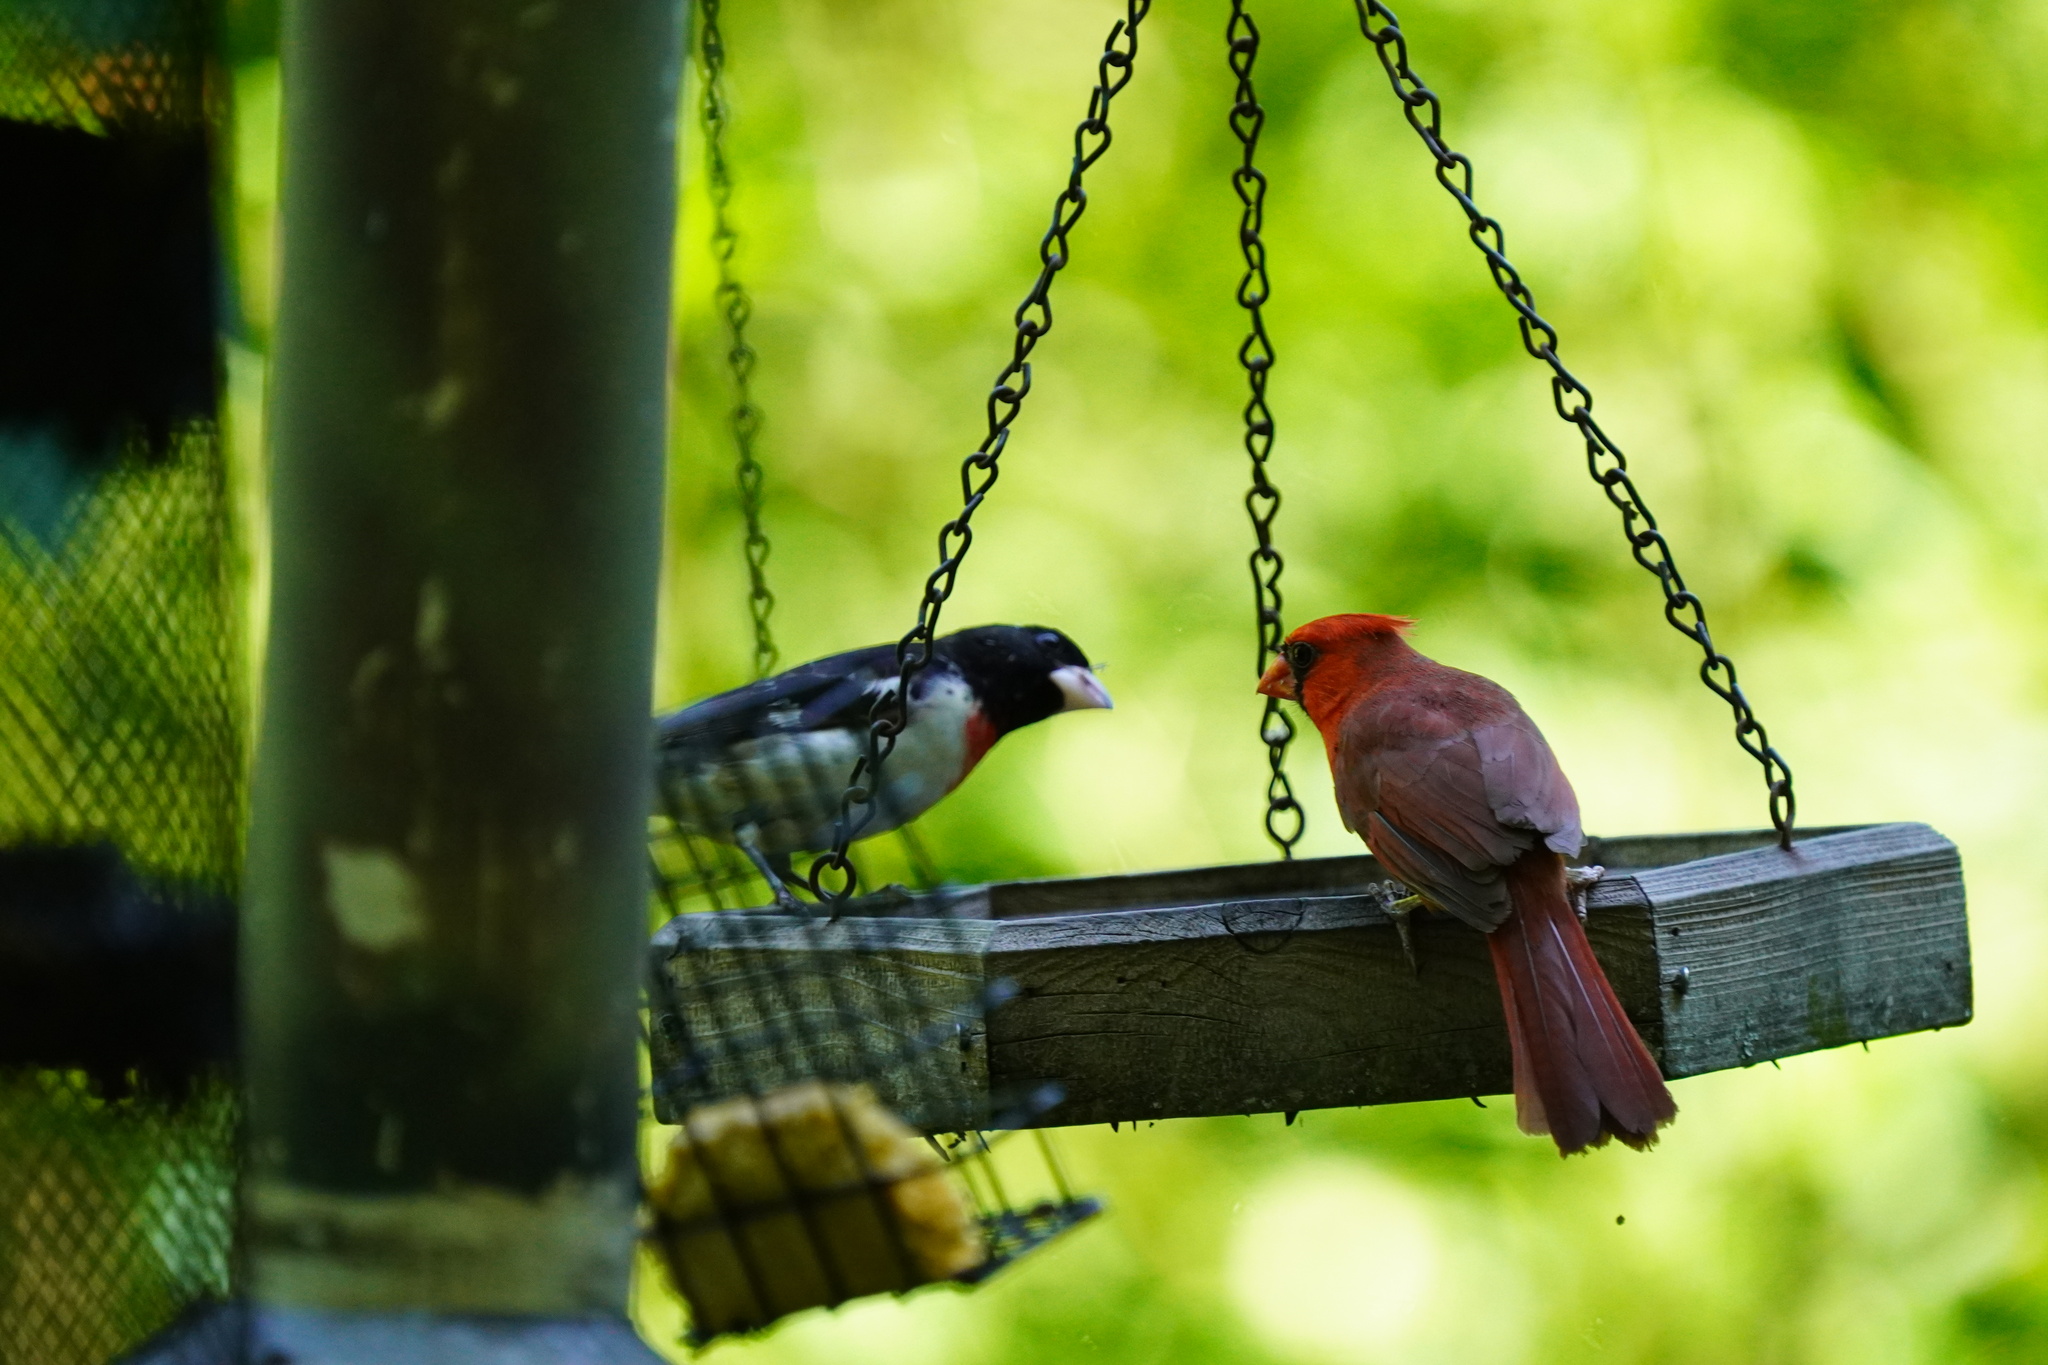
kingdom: Animalia
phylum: Chordata
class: Aves
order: Passeriformes
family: Cardinalidae
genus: Cardinalis
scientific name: Cardinalis cardinalis
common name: Northern cardinal
